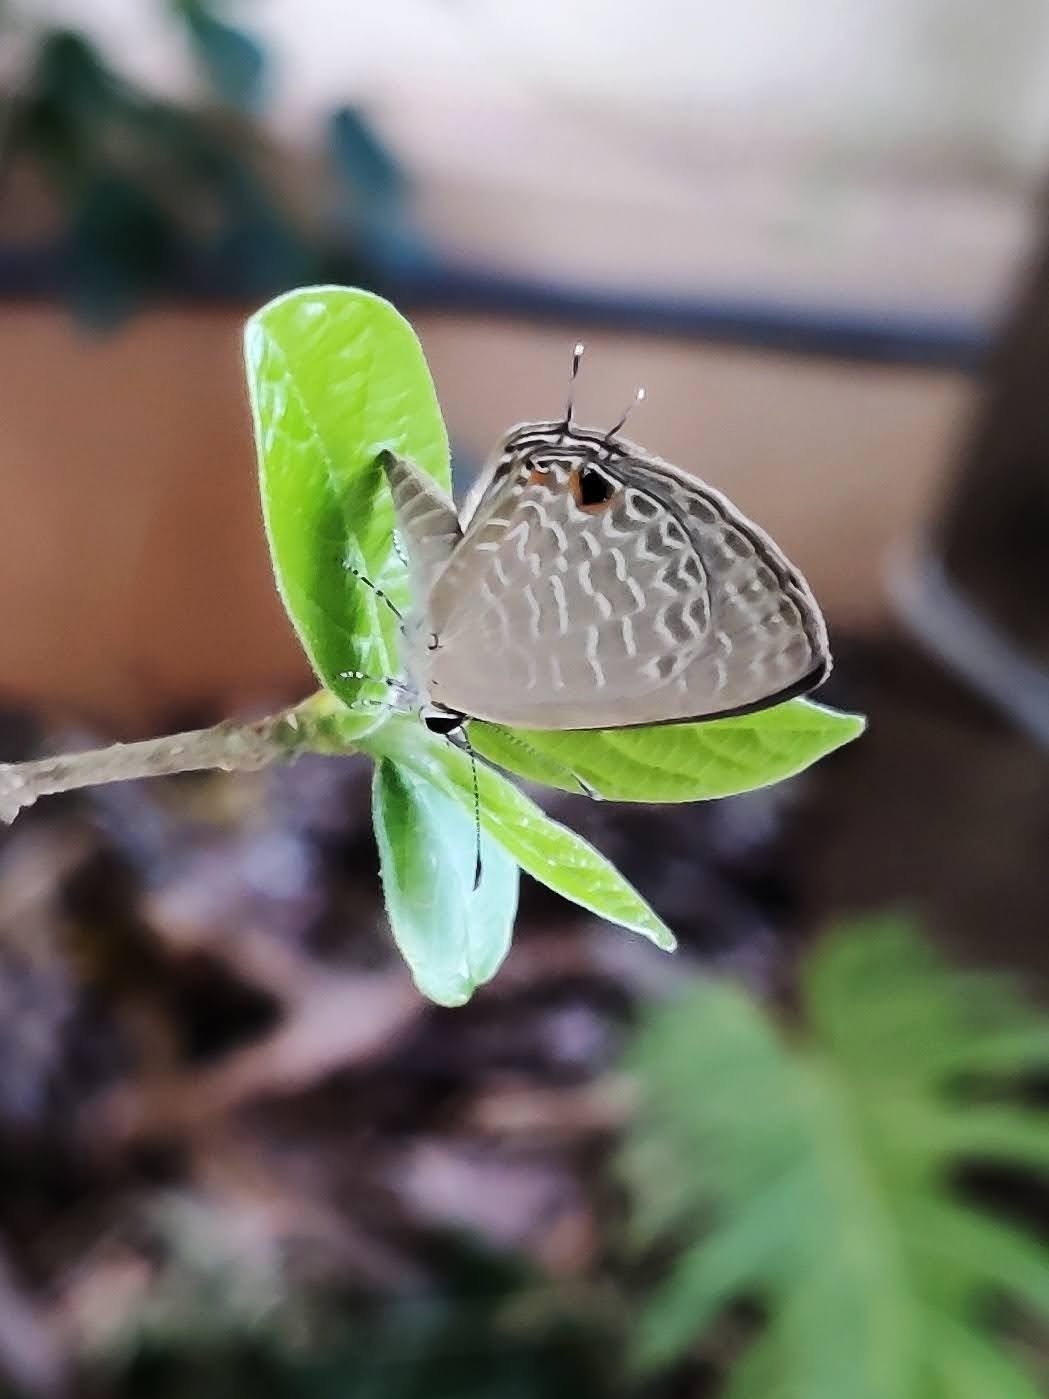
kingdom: Animalia
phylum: Arthropoda
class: Insecta
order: Lepidoptera
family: Lycaenidae
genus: Jamides
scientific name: Jamides bochus
